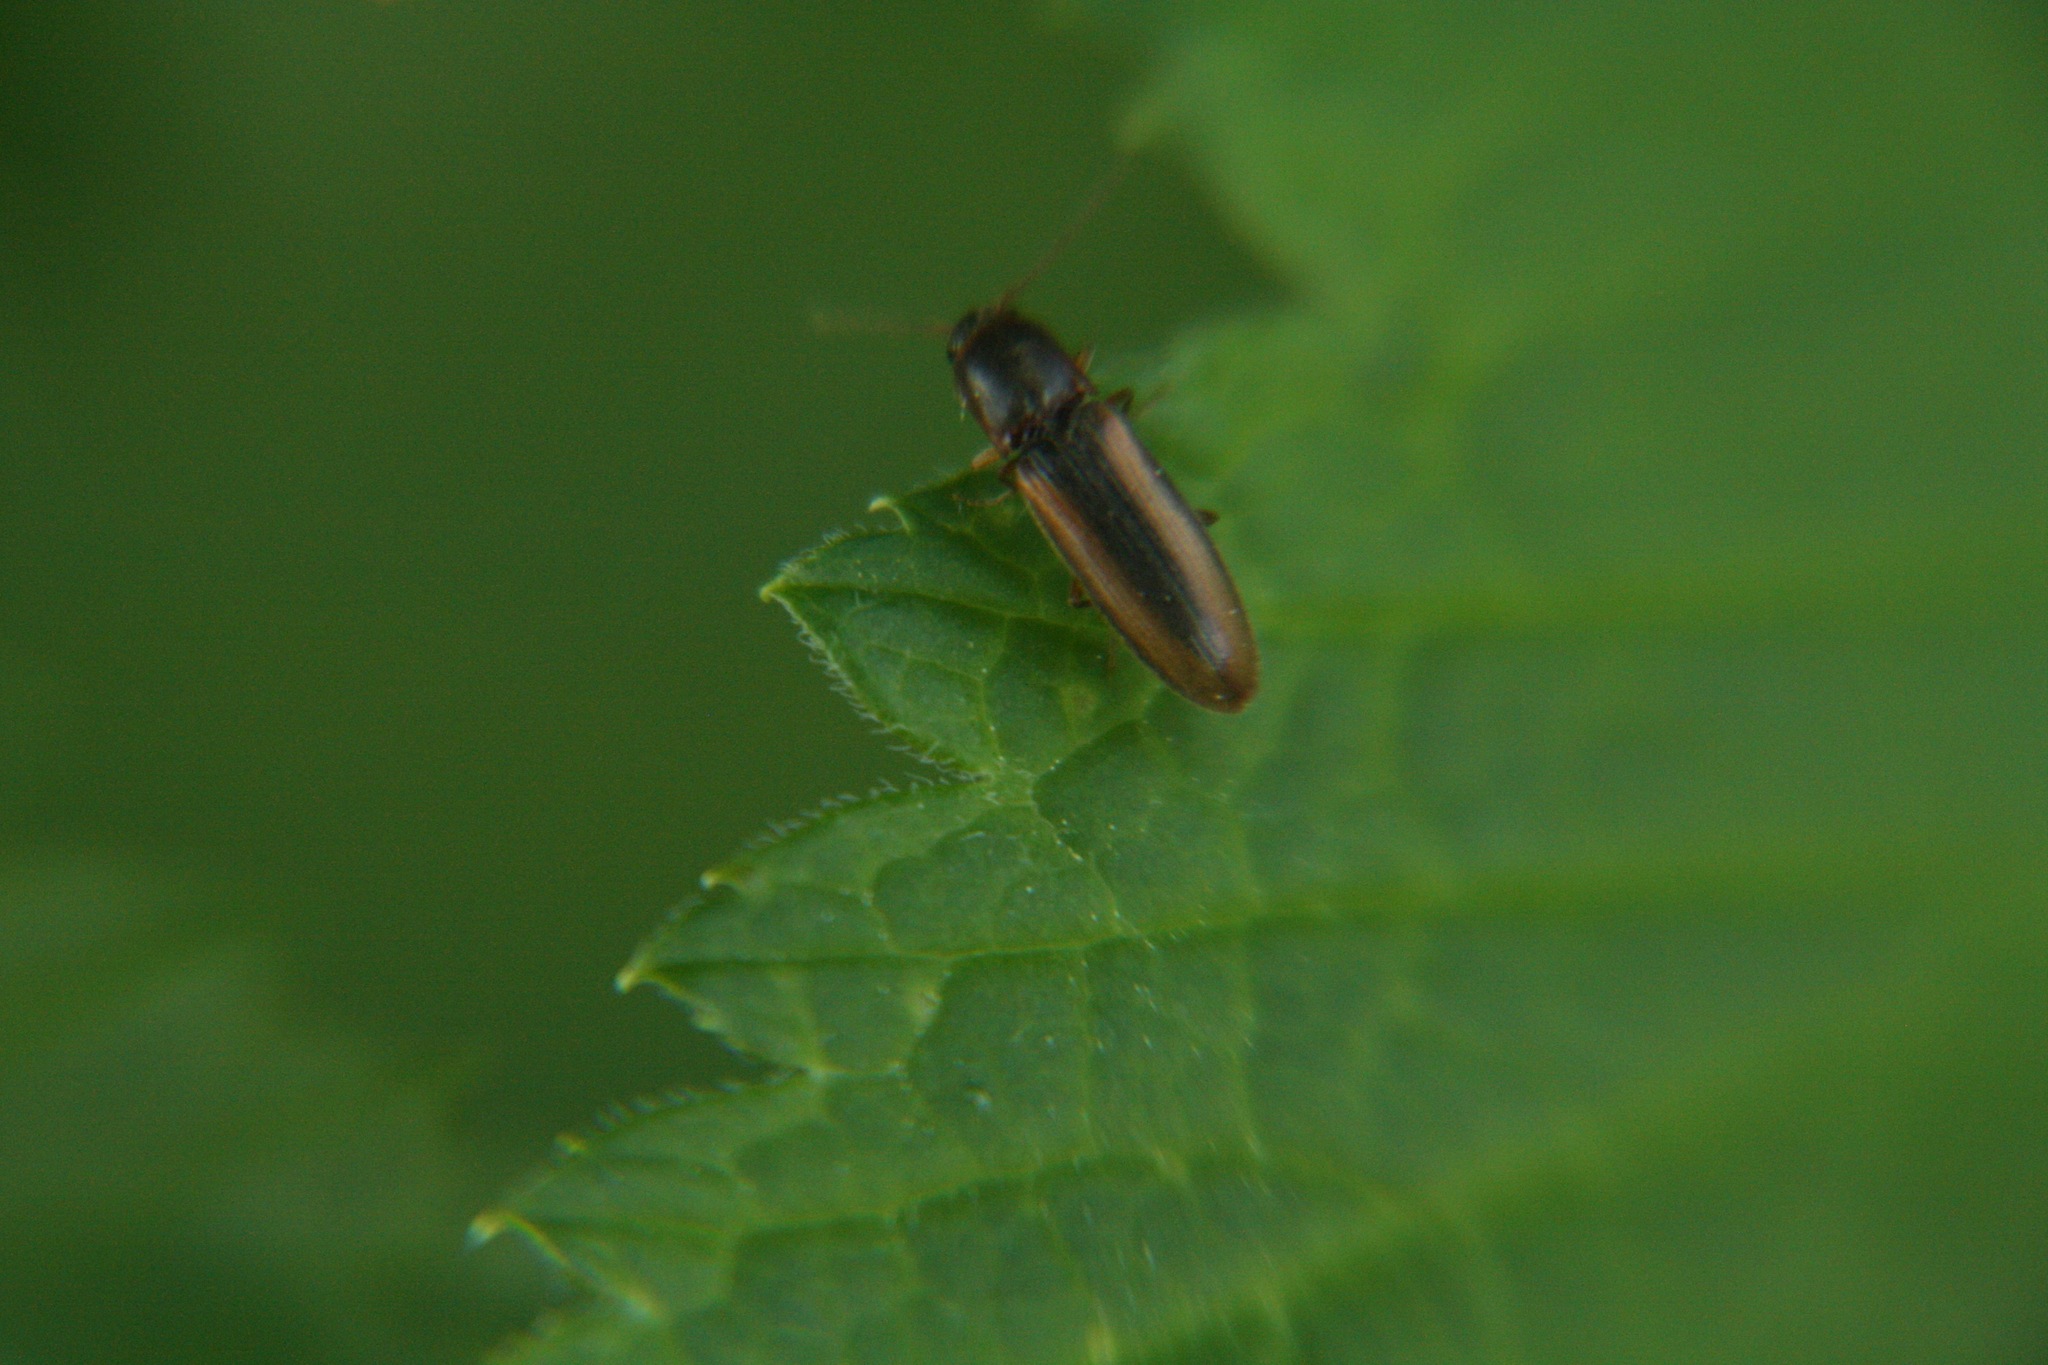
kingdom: Animalia
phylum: Arthropoda
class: Insecta
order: Coleoptera
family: Elateridae
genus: Dalopius
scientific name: Dalopius marginatus
